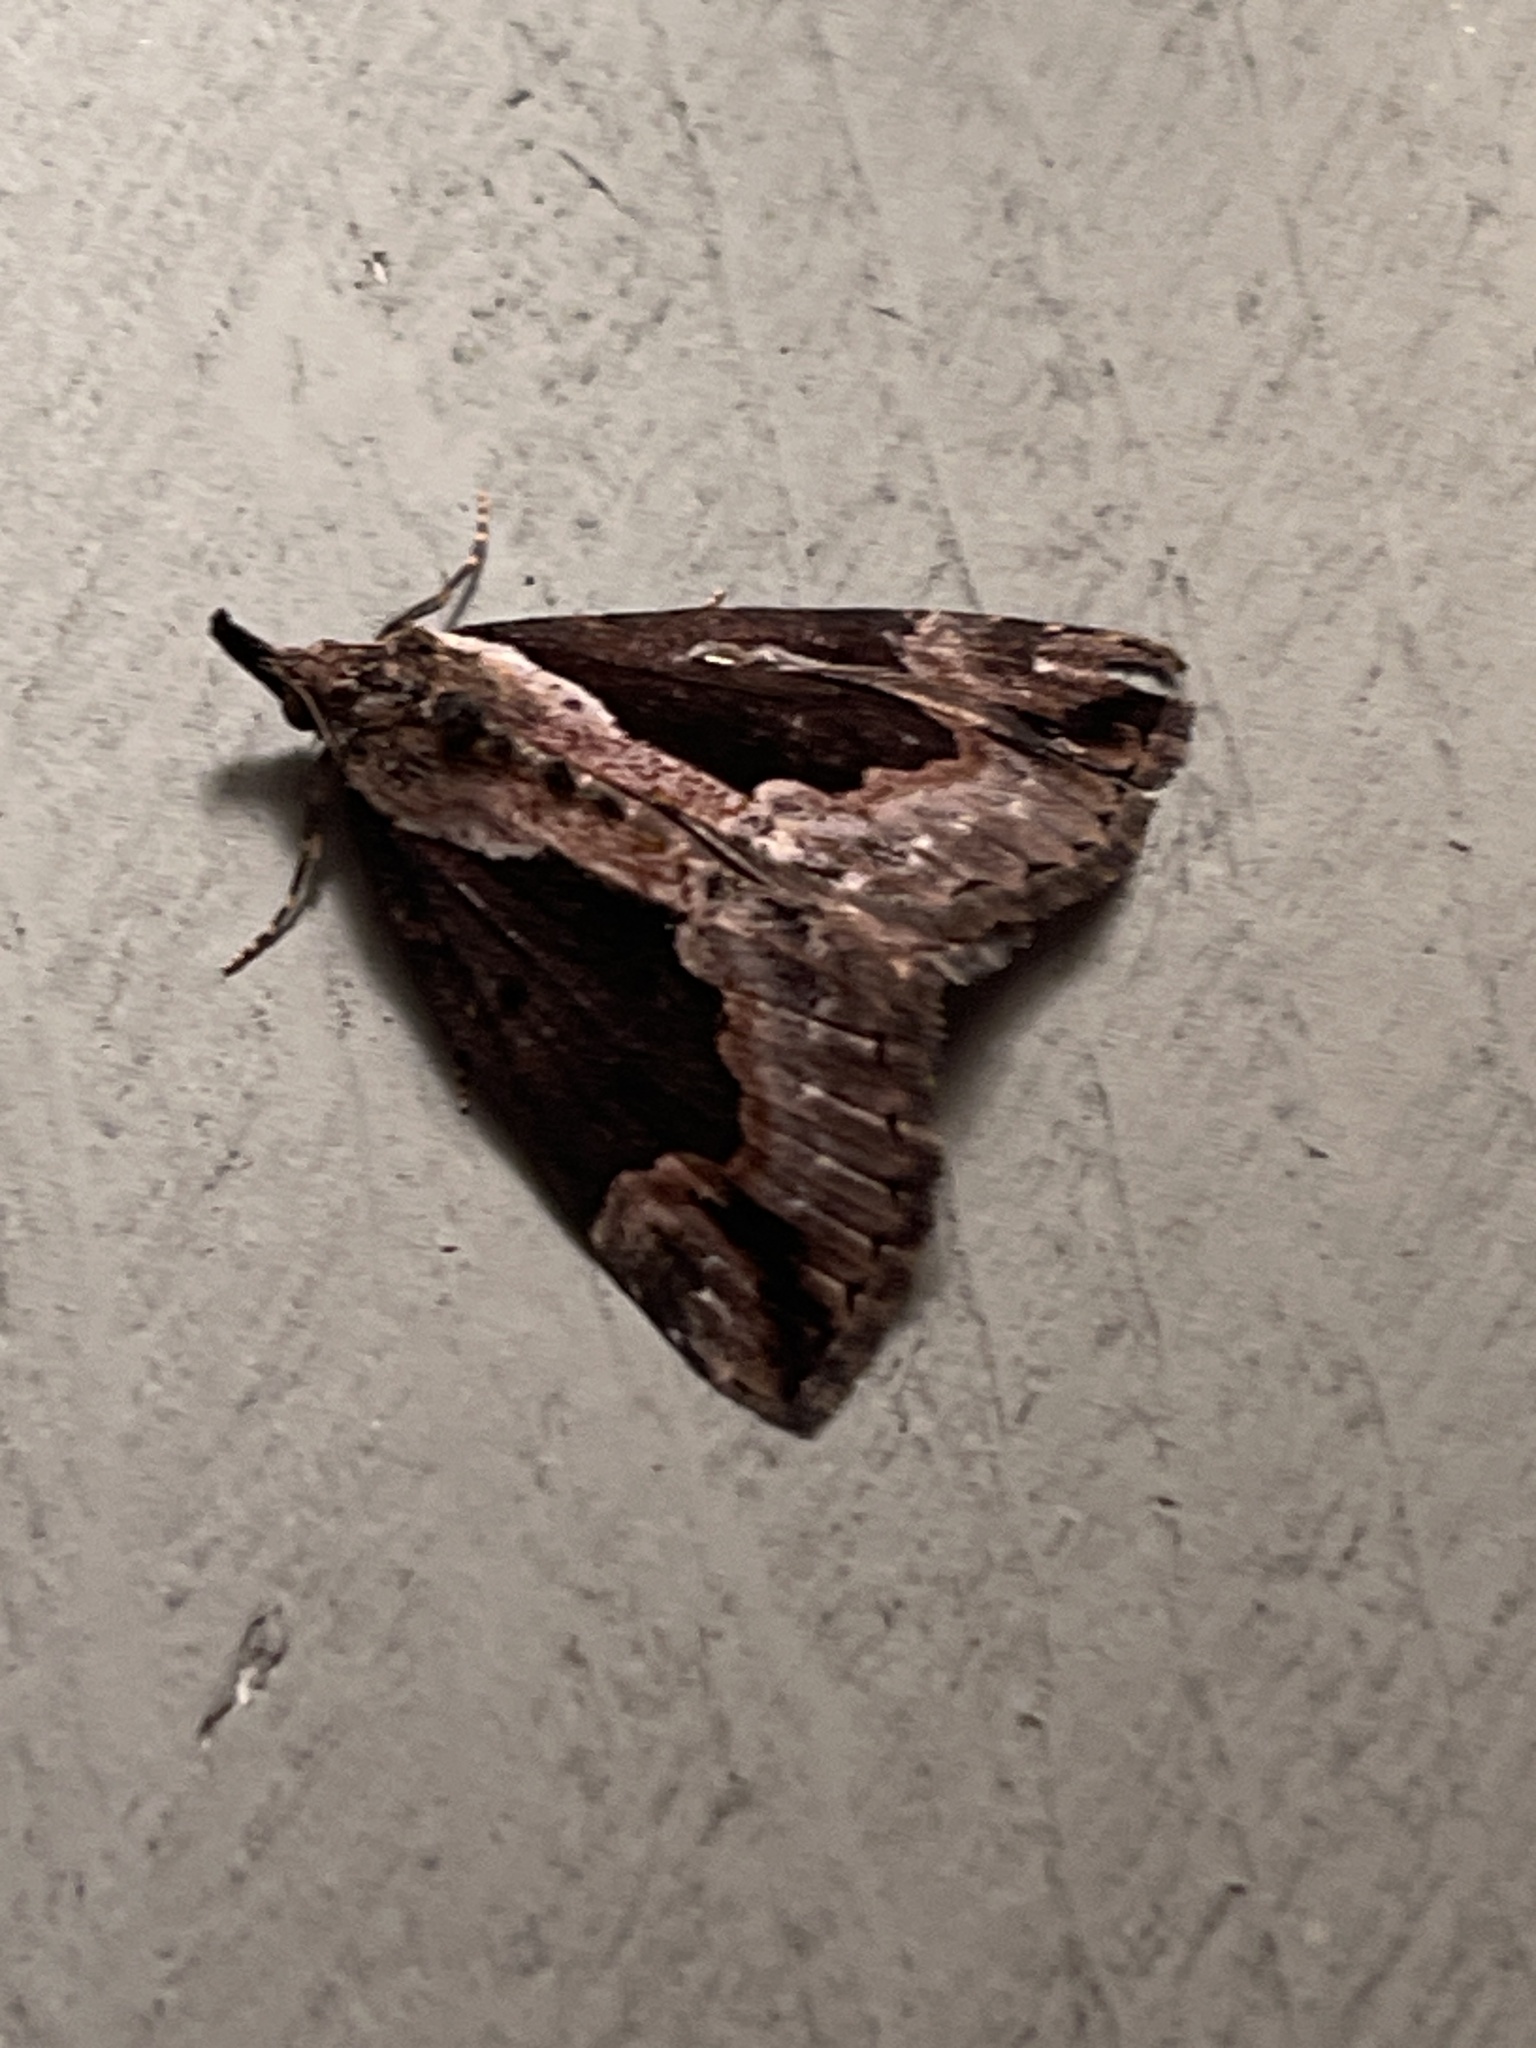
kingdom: Animalia
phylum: Arthropoda
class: Insecta
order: Lepidoptera
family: Erebidae
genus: Hypena
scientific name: Hypena baltimoralis
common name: Baltimore snout
